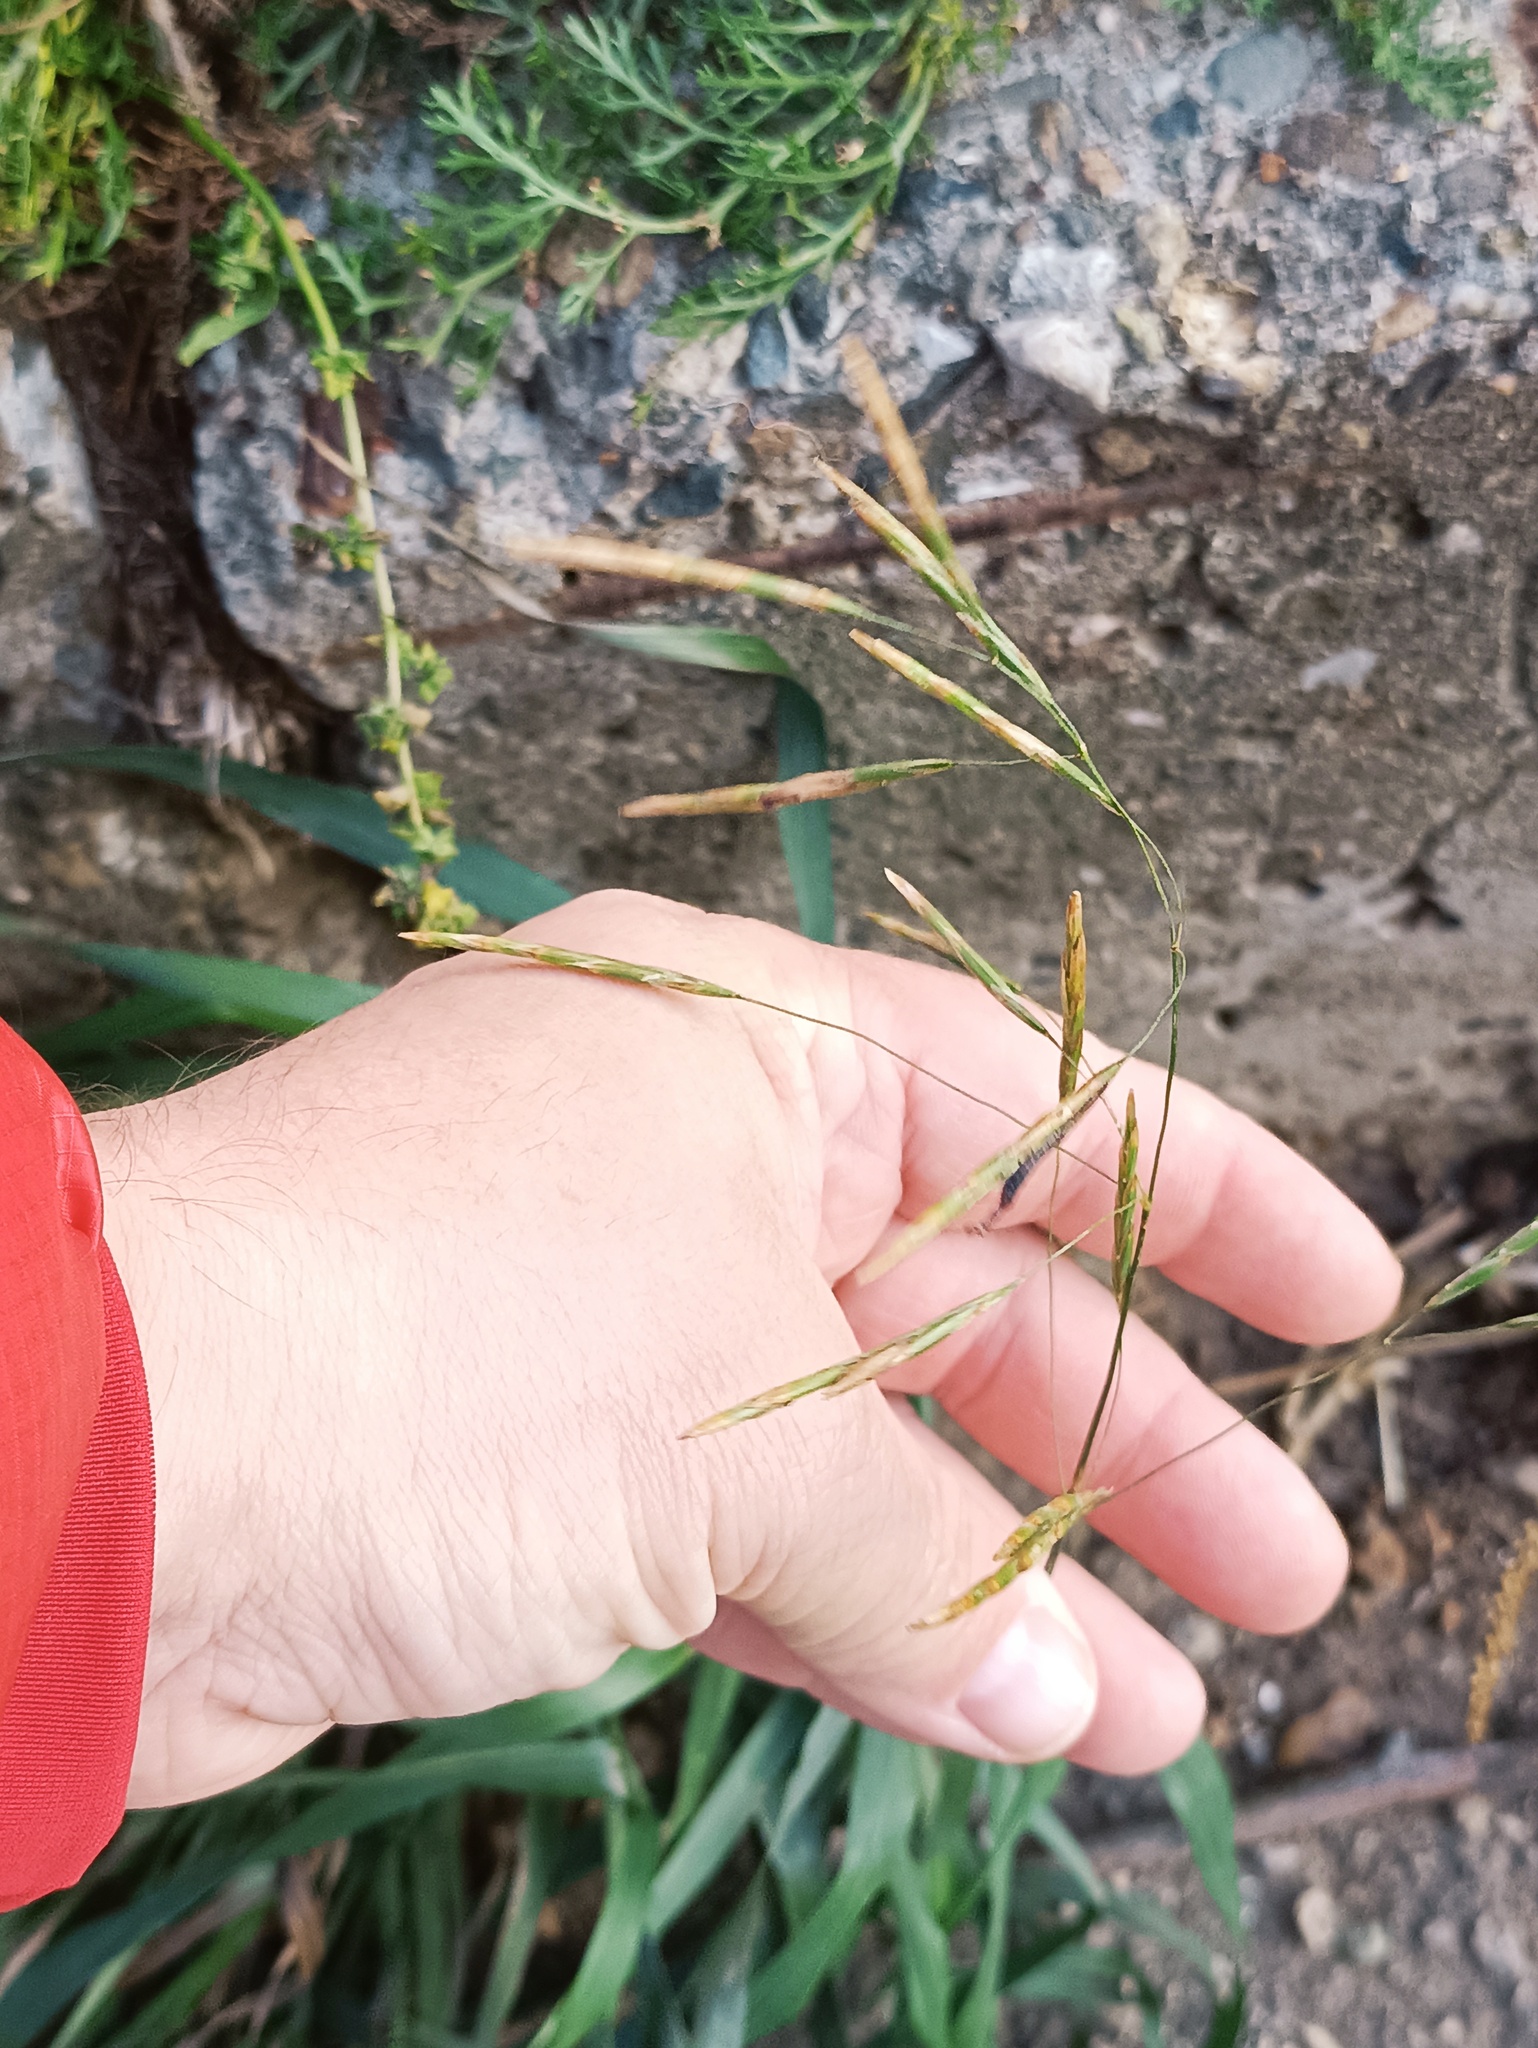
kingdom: Plantae
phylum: Tracheophyta
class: Liliopsida
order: Poales
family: Poaceae
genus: Bromus
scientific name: Bromus inermis
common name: Smooth brome
